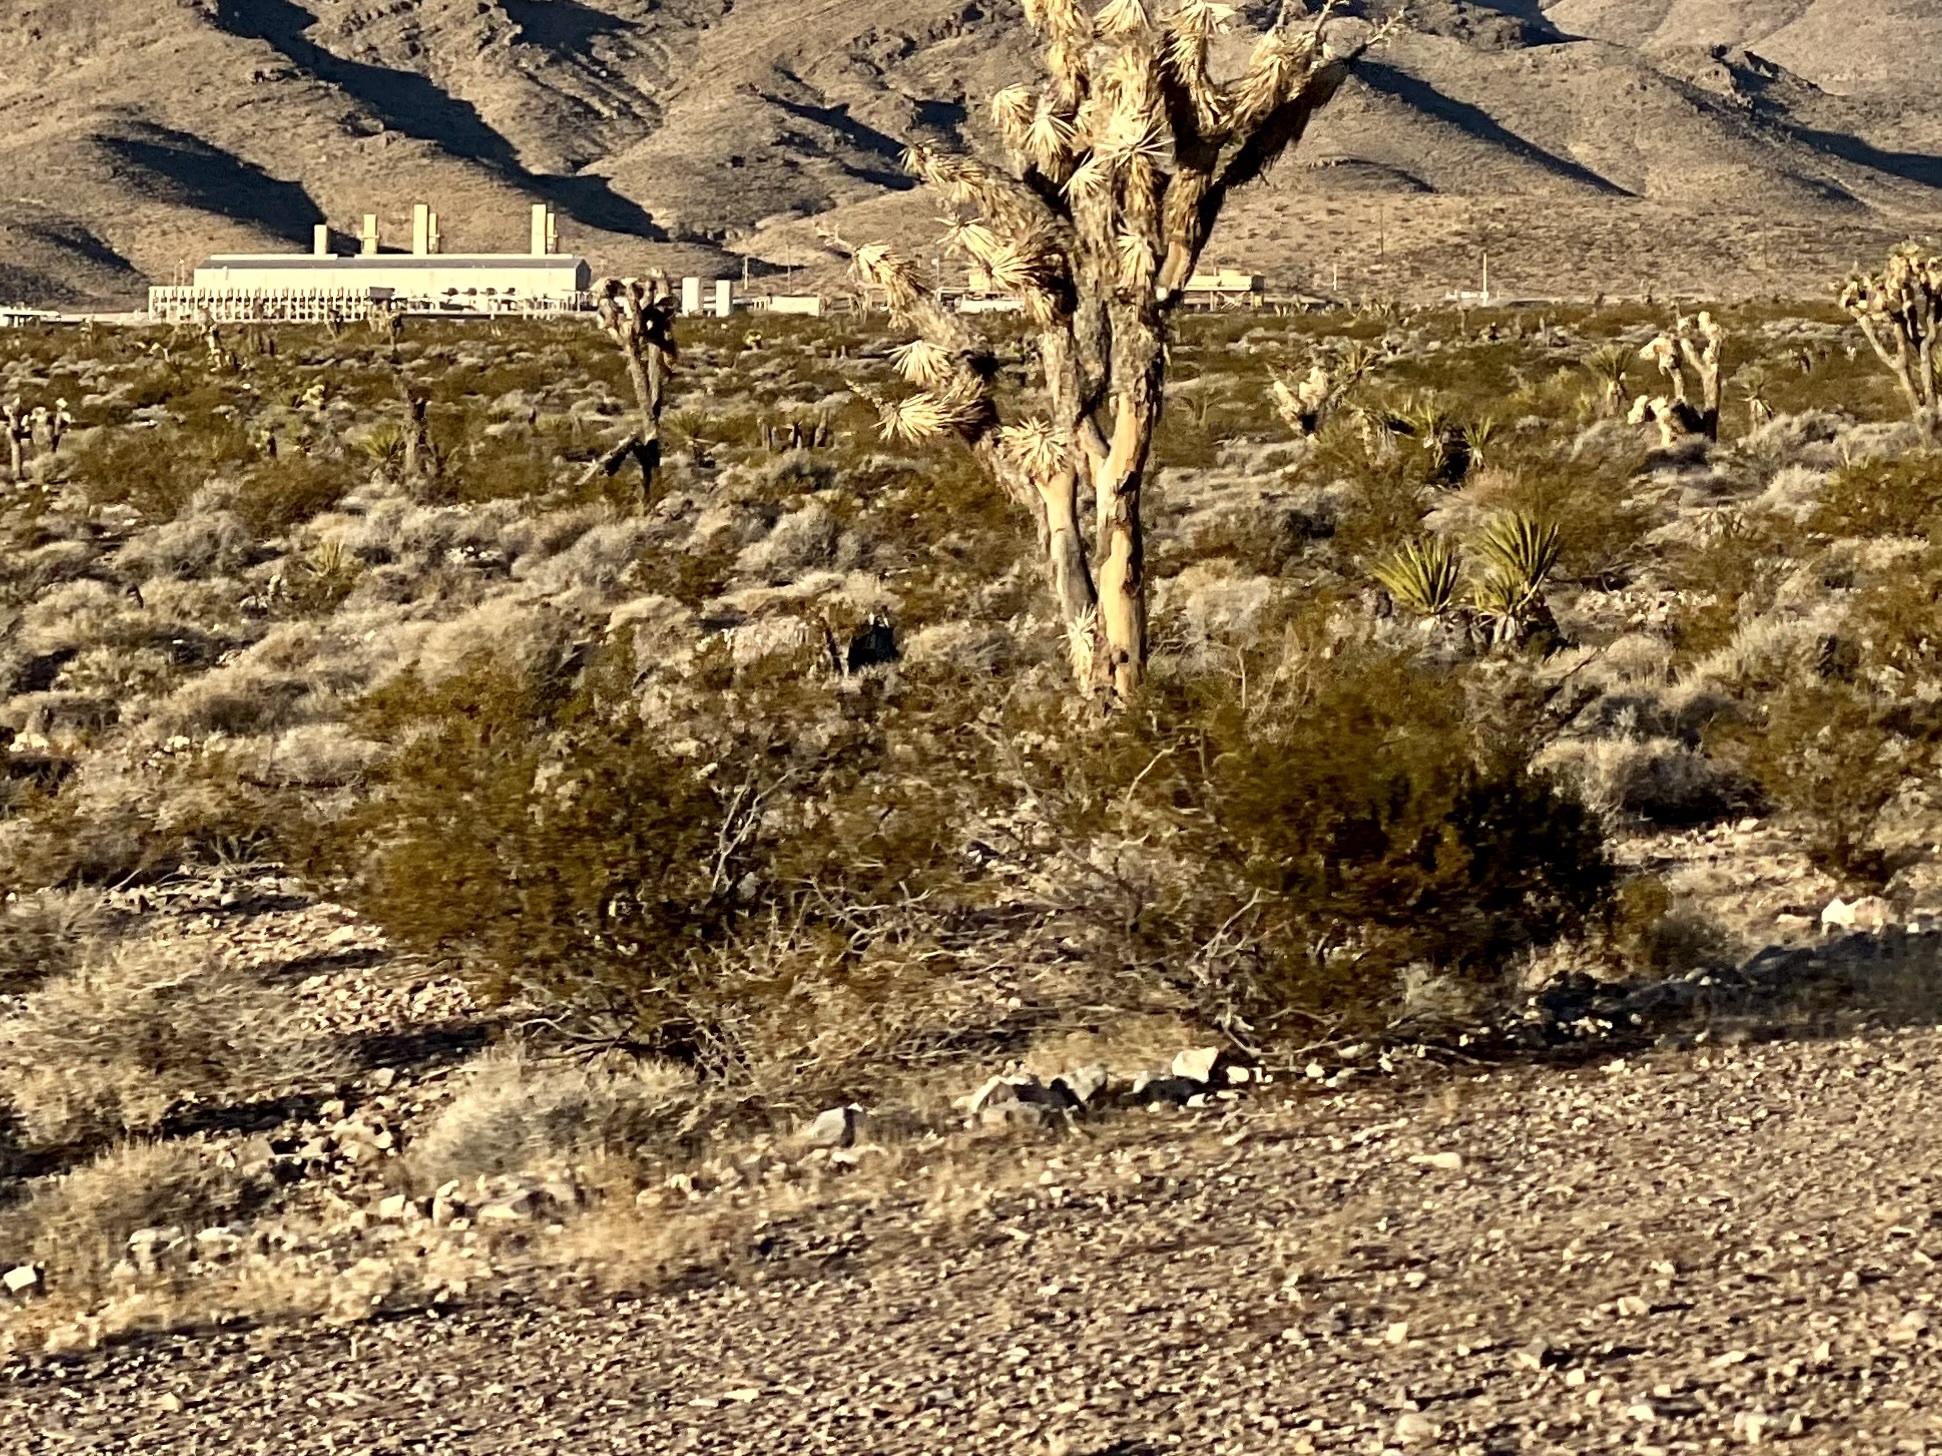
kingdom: Plantae
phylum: Tracheophyta
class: Magnoliopsida
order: Zygophyllales
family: Zygophyllaceae
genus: Larrea
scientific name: Larrea tridentata
